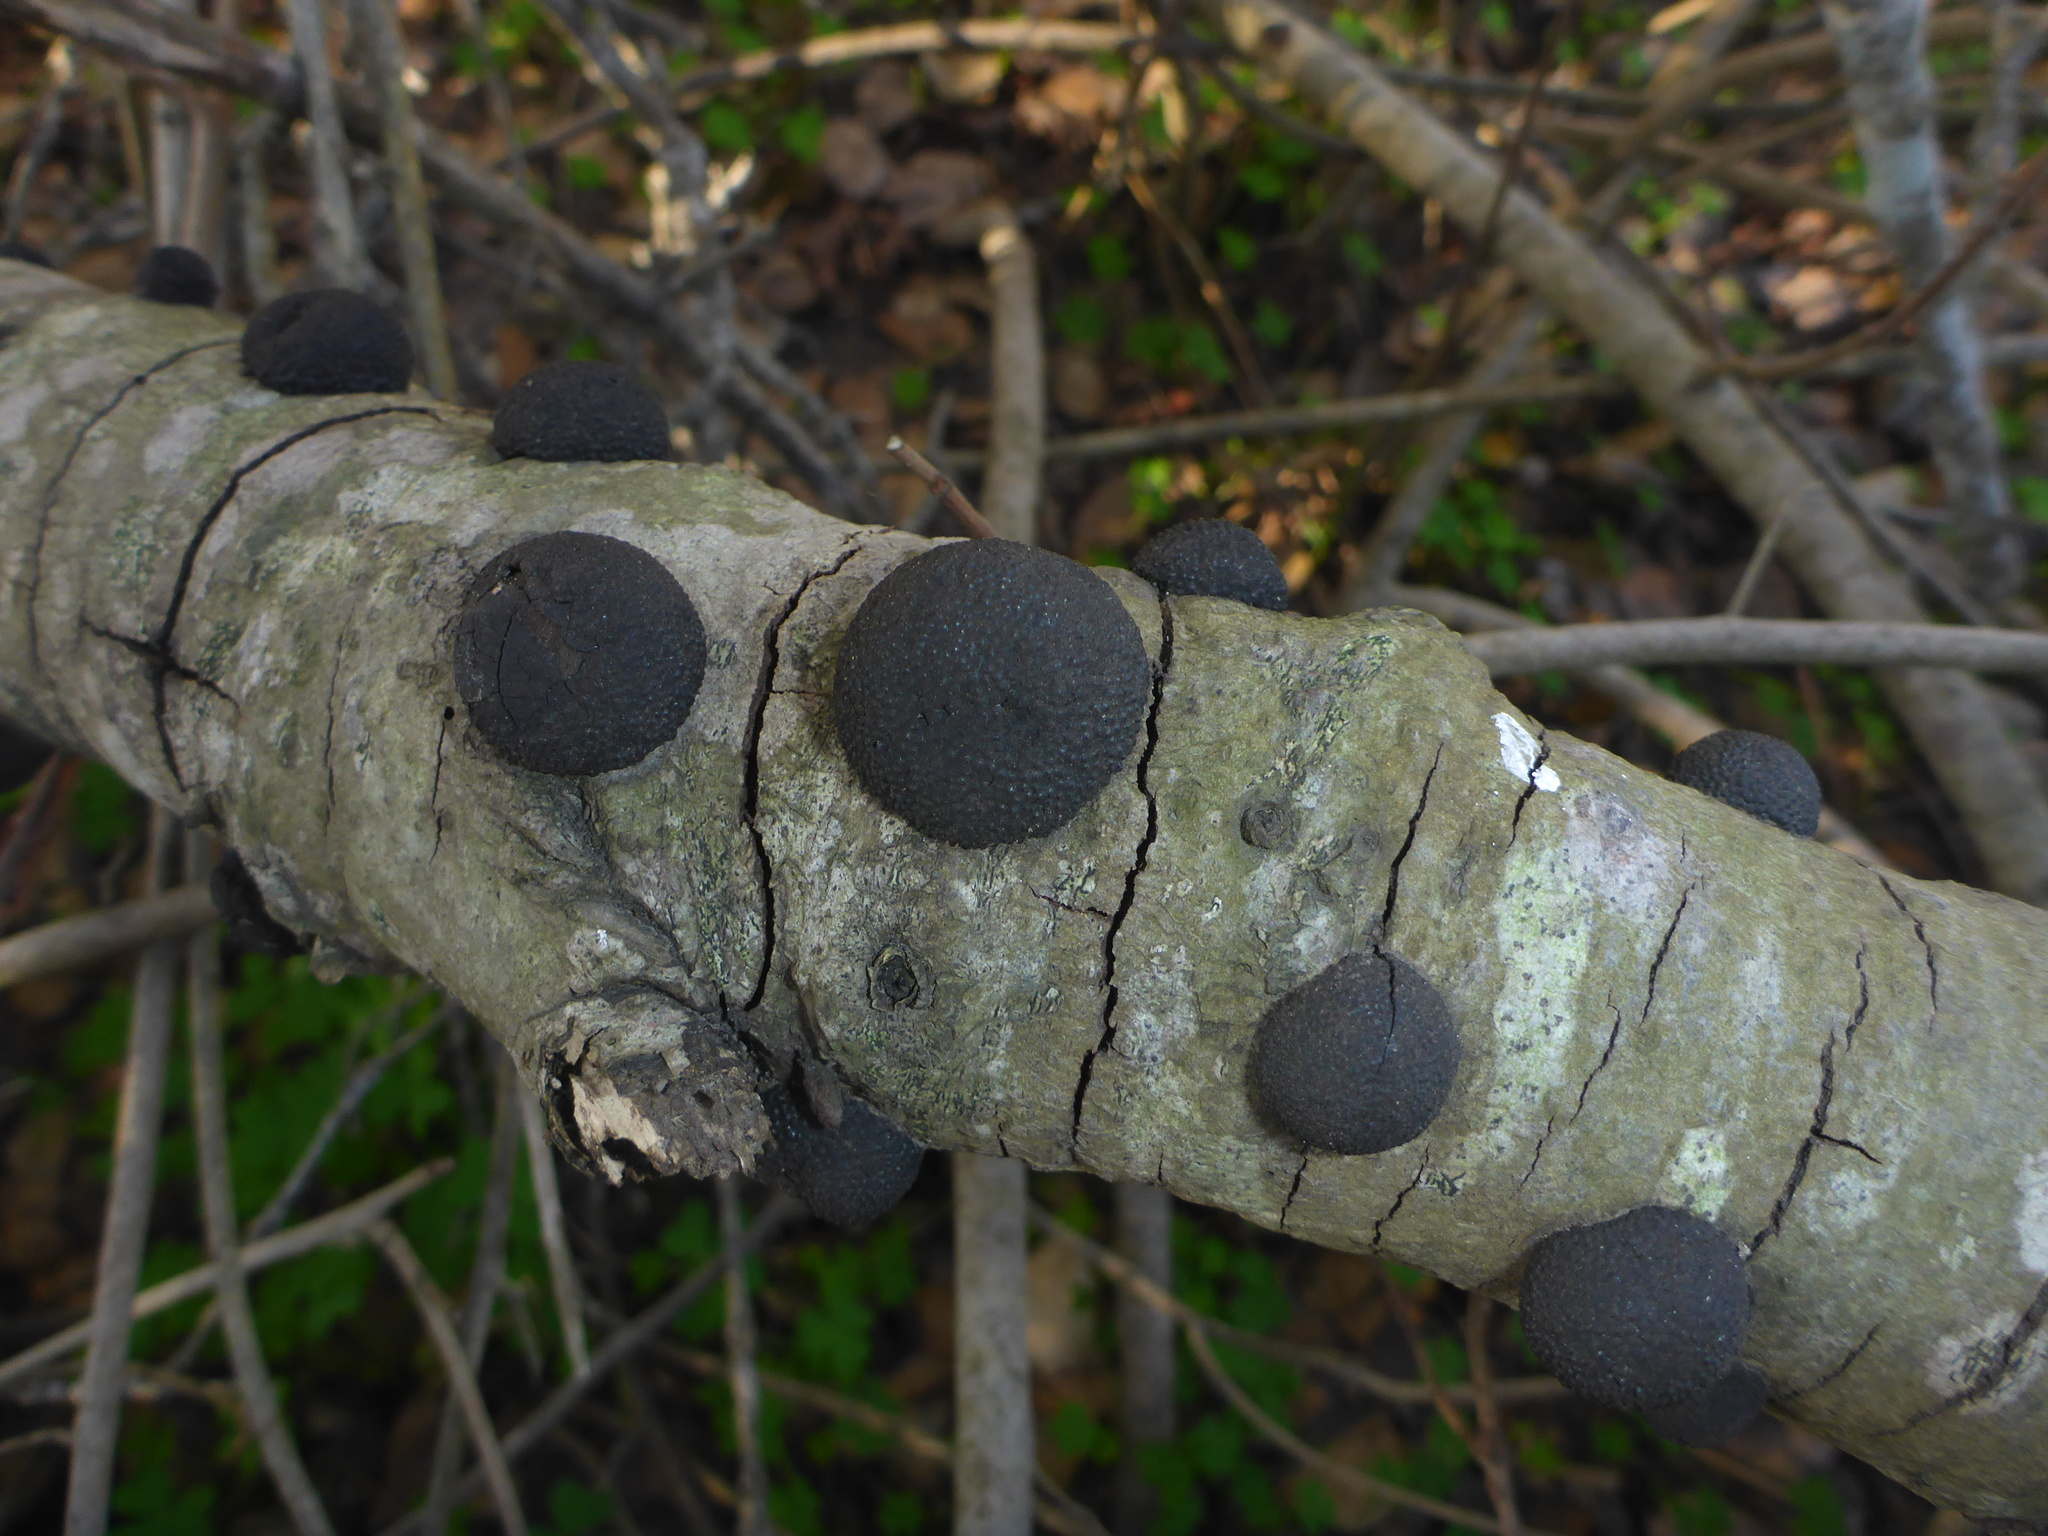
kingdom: Fungi
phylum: Ascomycota
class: Sordariomycetes
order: Xylariales
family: Hypoxylaceae
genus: Annulohypoxylon
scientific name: Annulohypoxylon thouarsianum
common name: Cramp balls
